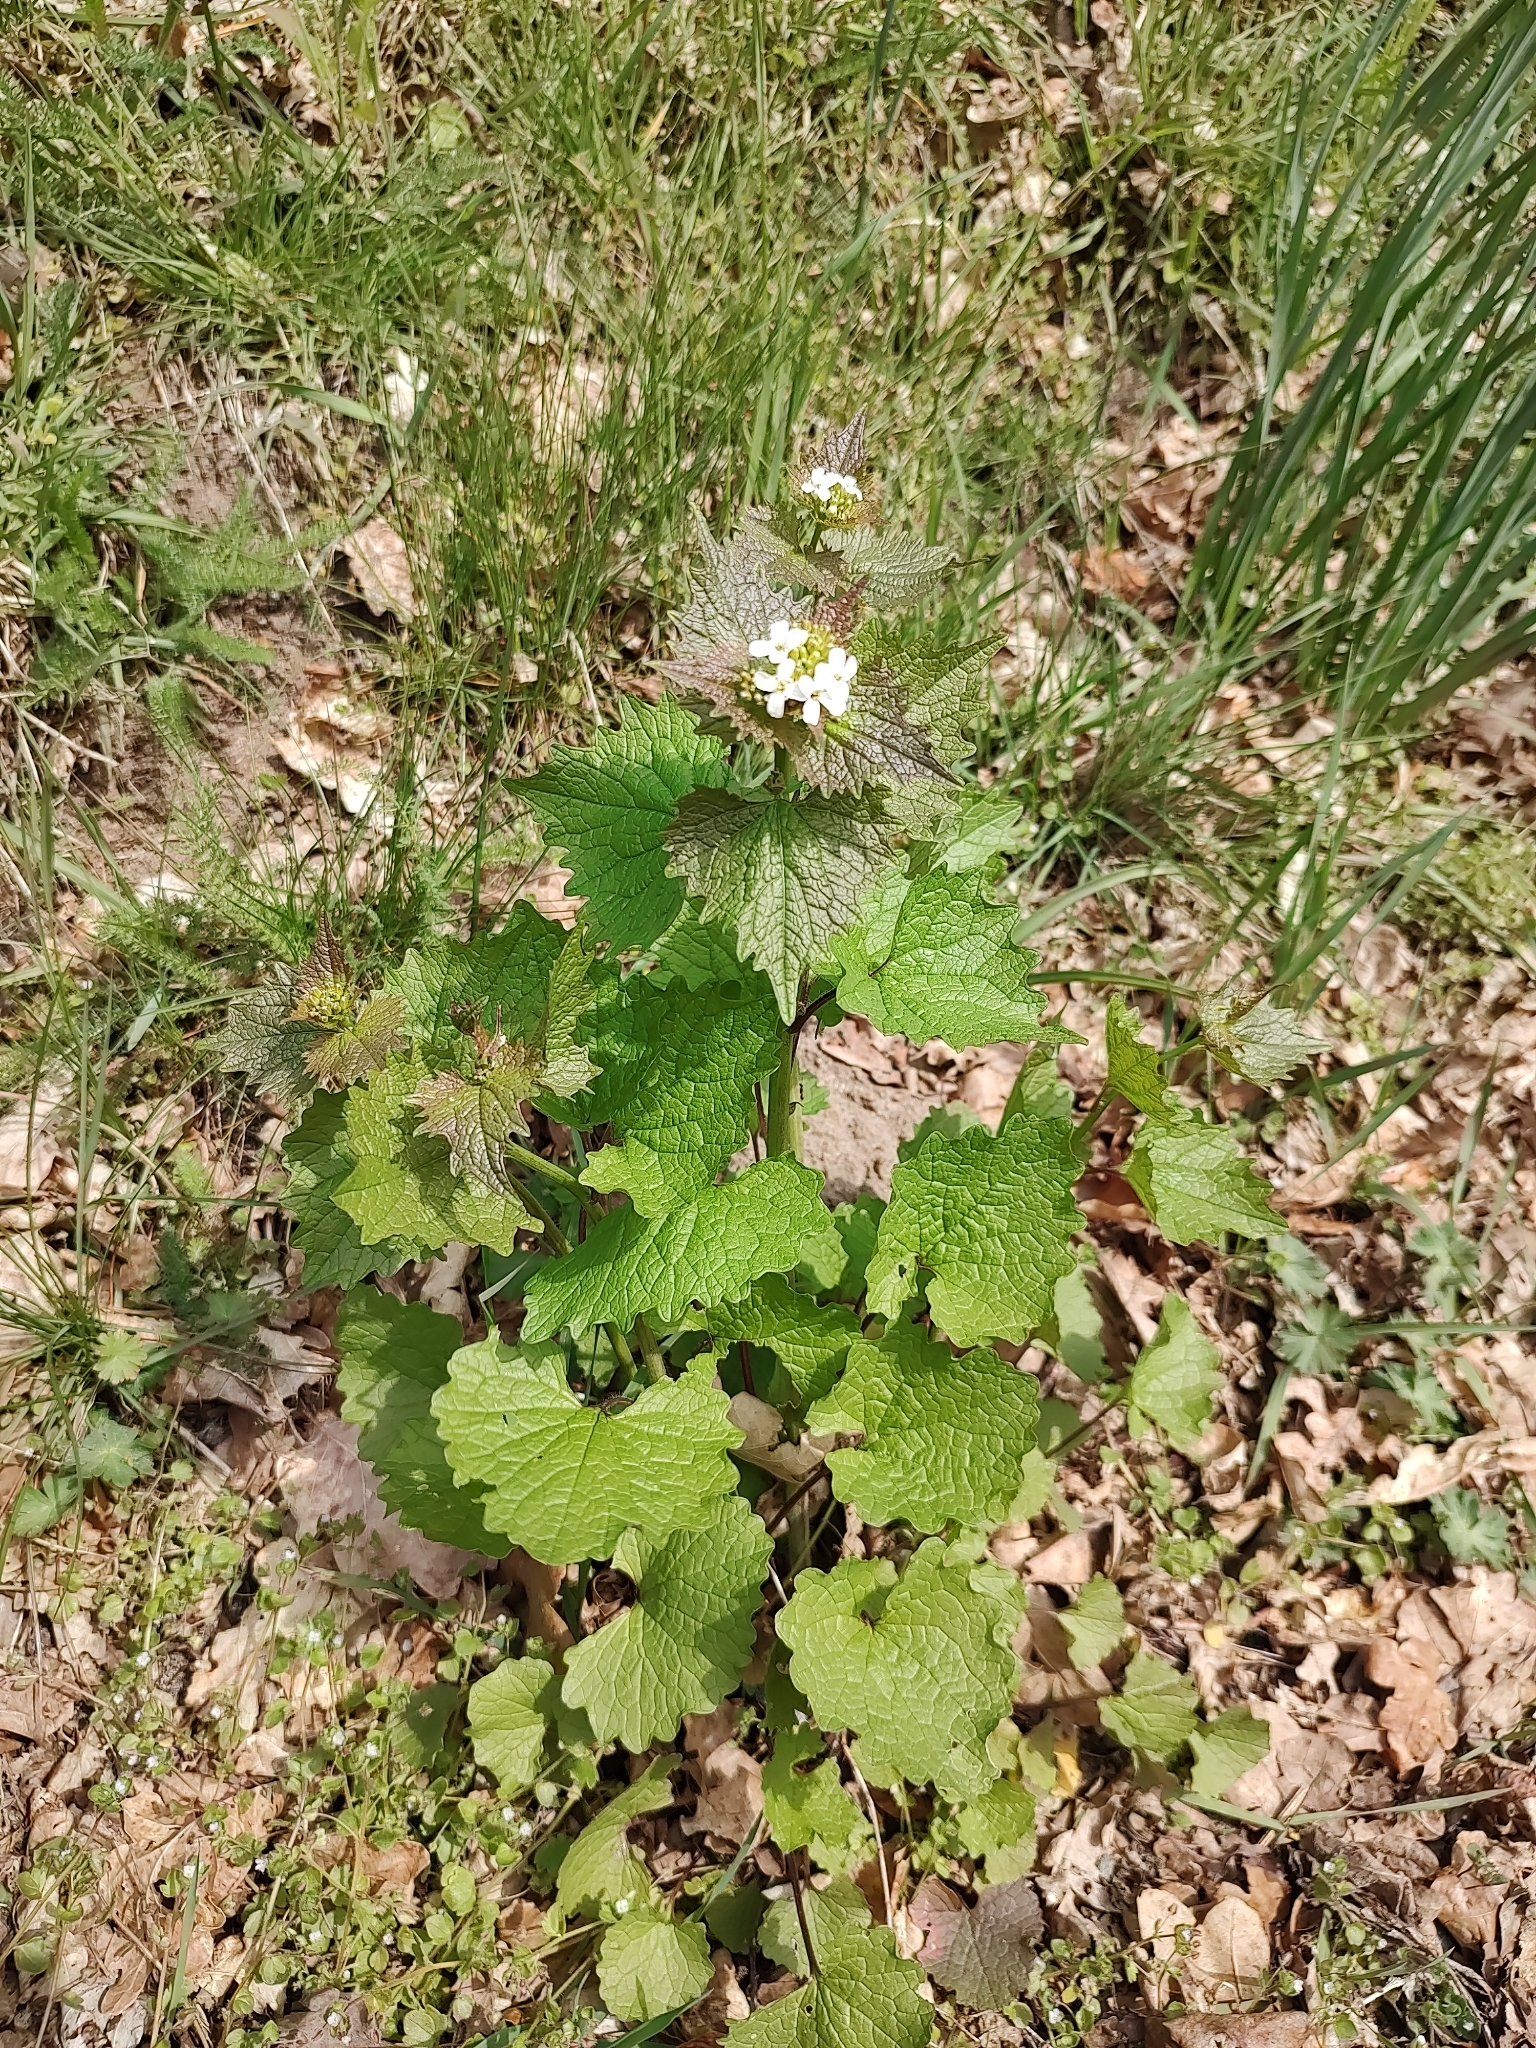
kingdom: Plantae
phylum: Tracheophyta
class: Magnoliopsida
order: Brassicales
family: Brassicaceae
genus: Alliaria
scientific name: Alliaria petiolata
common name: Garlic mustard
